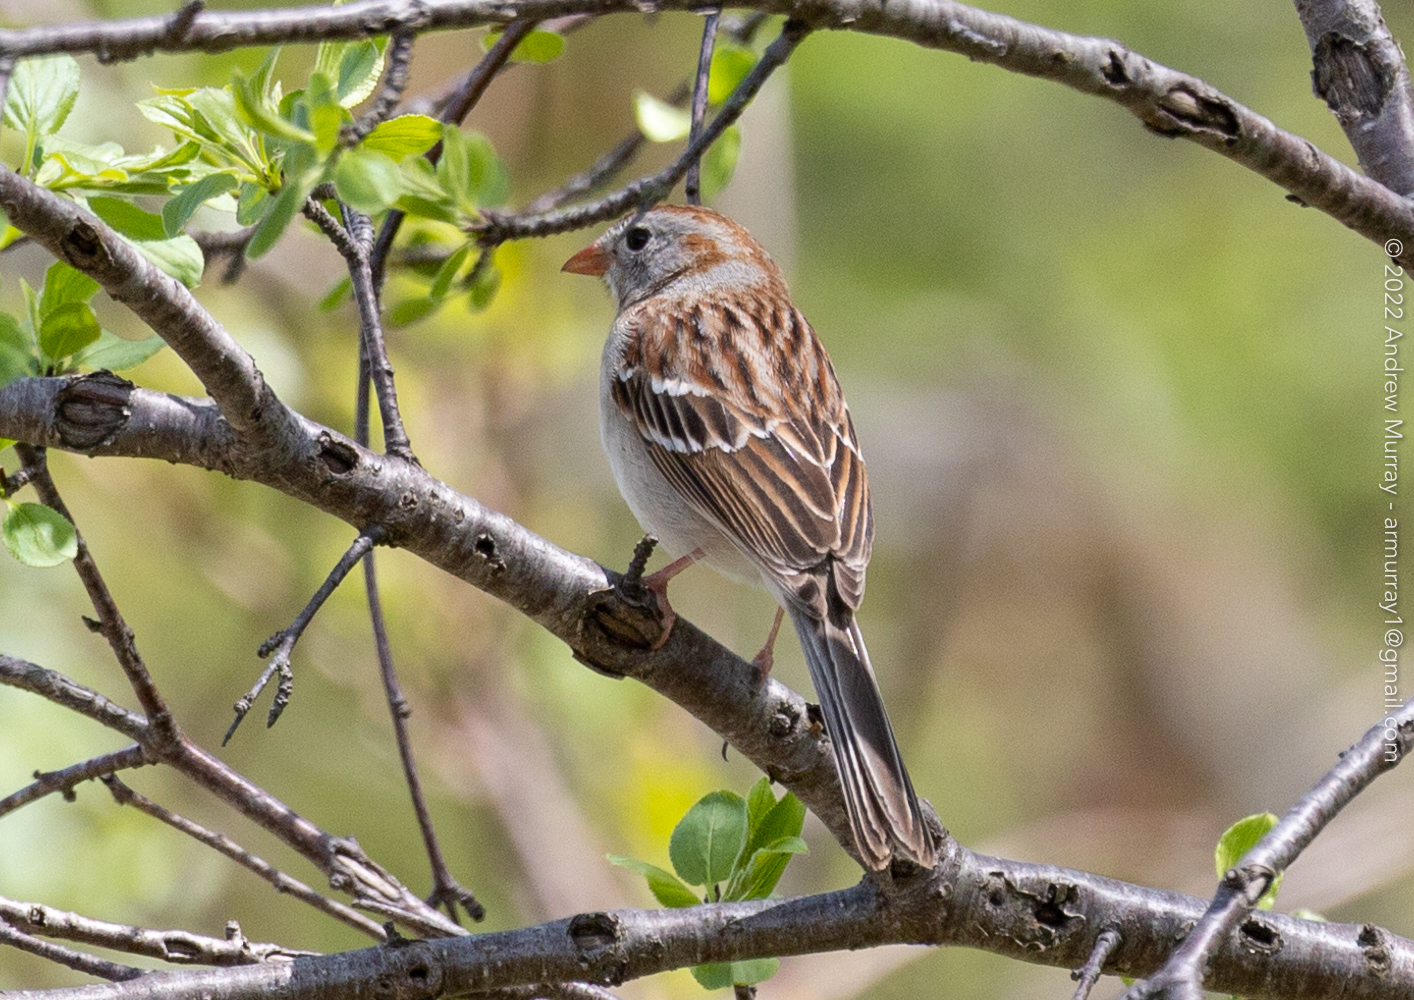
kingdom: Animalia
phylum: Chordata
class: Aves
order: Passeriformes
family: Passerellidae
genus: Spizella
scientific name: Spizella pusilla
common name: Field sparrow
